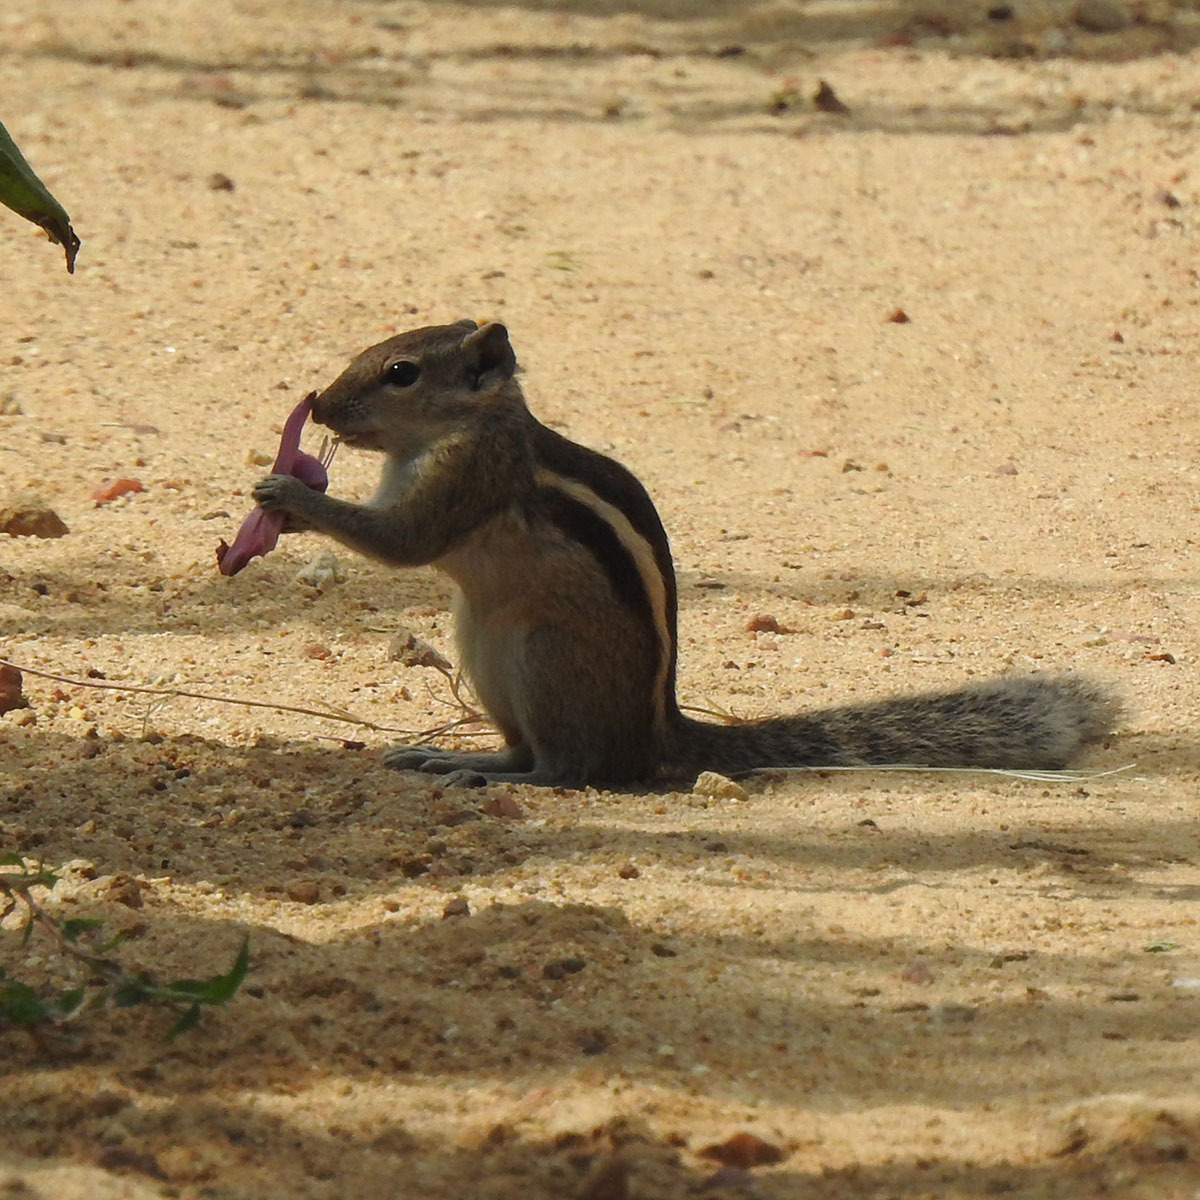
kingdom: Animalia
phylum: Chordata
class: Mammalia
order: Rodentia
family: Sciuridae
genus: Funambulus
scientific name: Funambulus palmarum
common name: Indian palm squirrel
